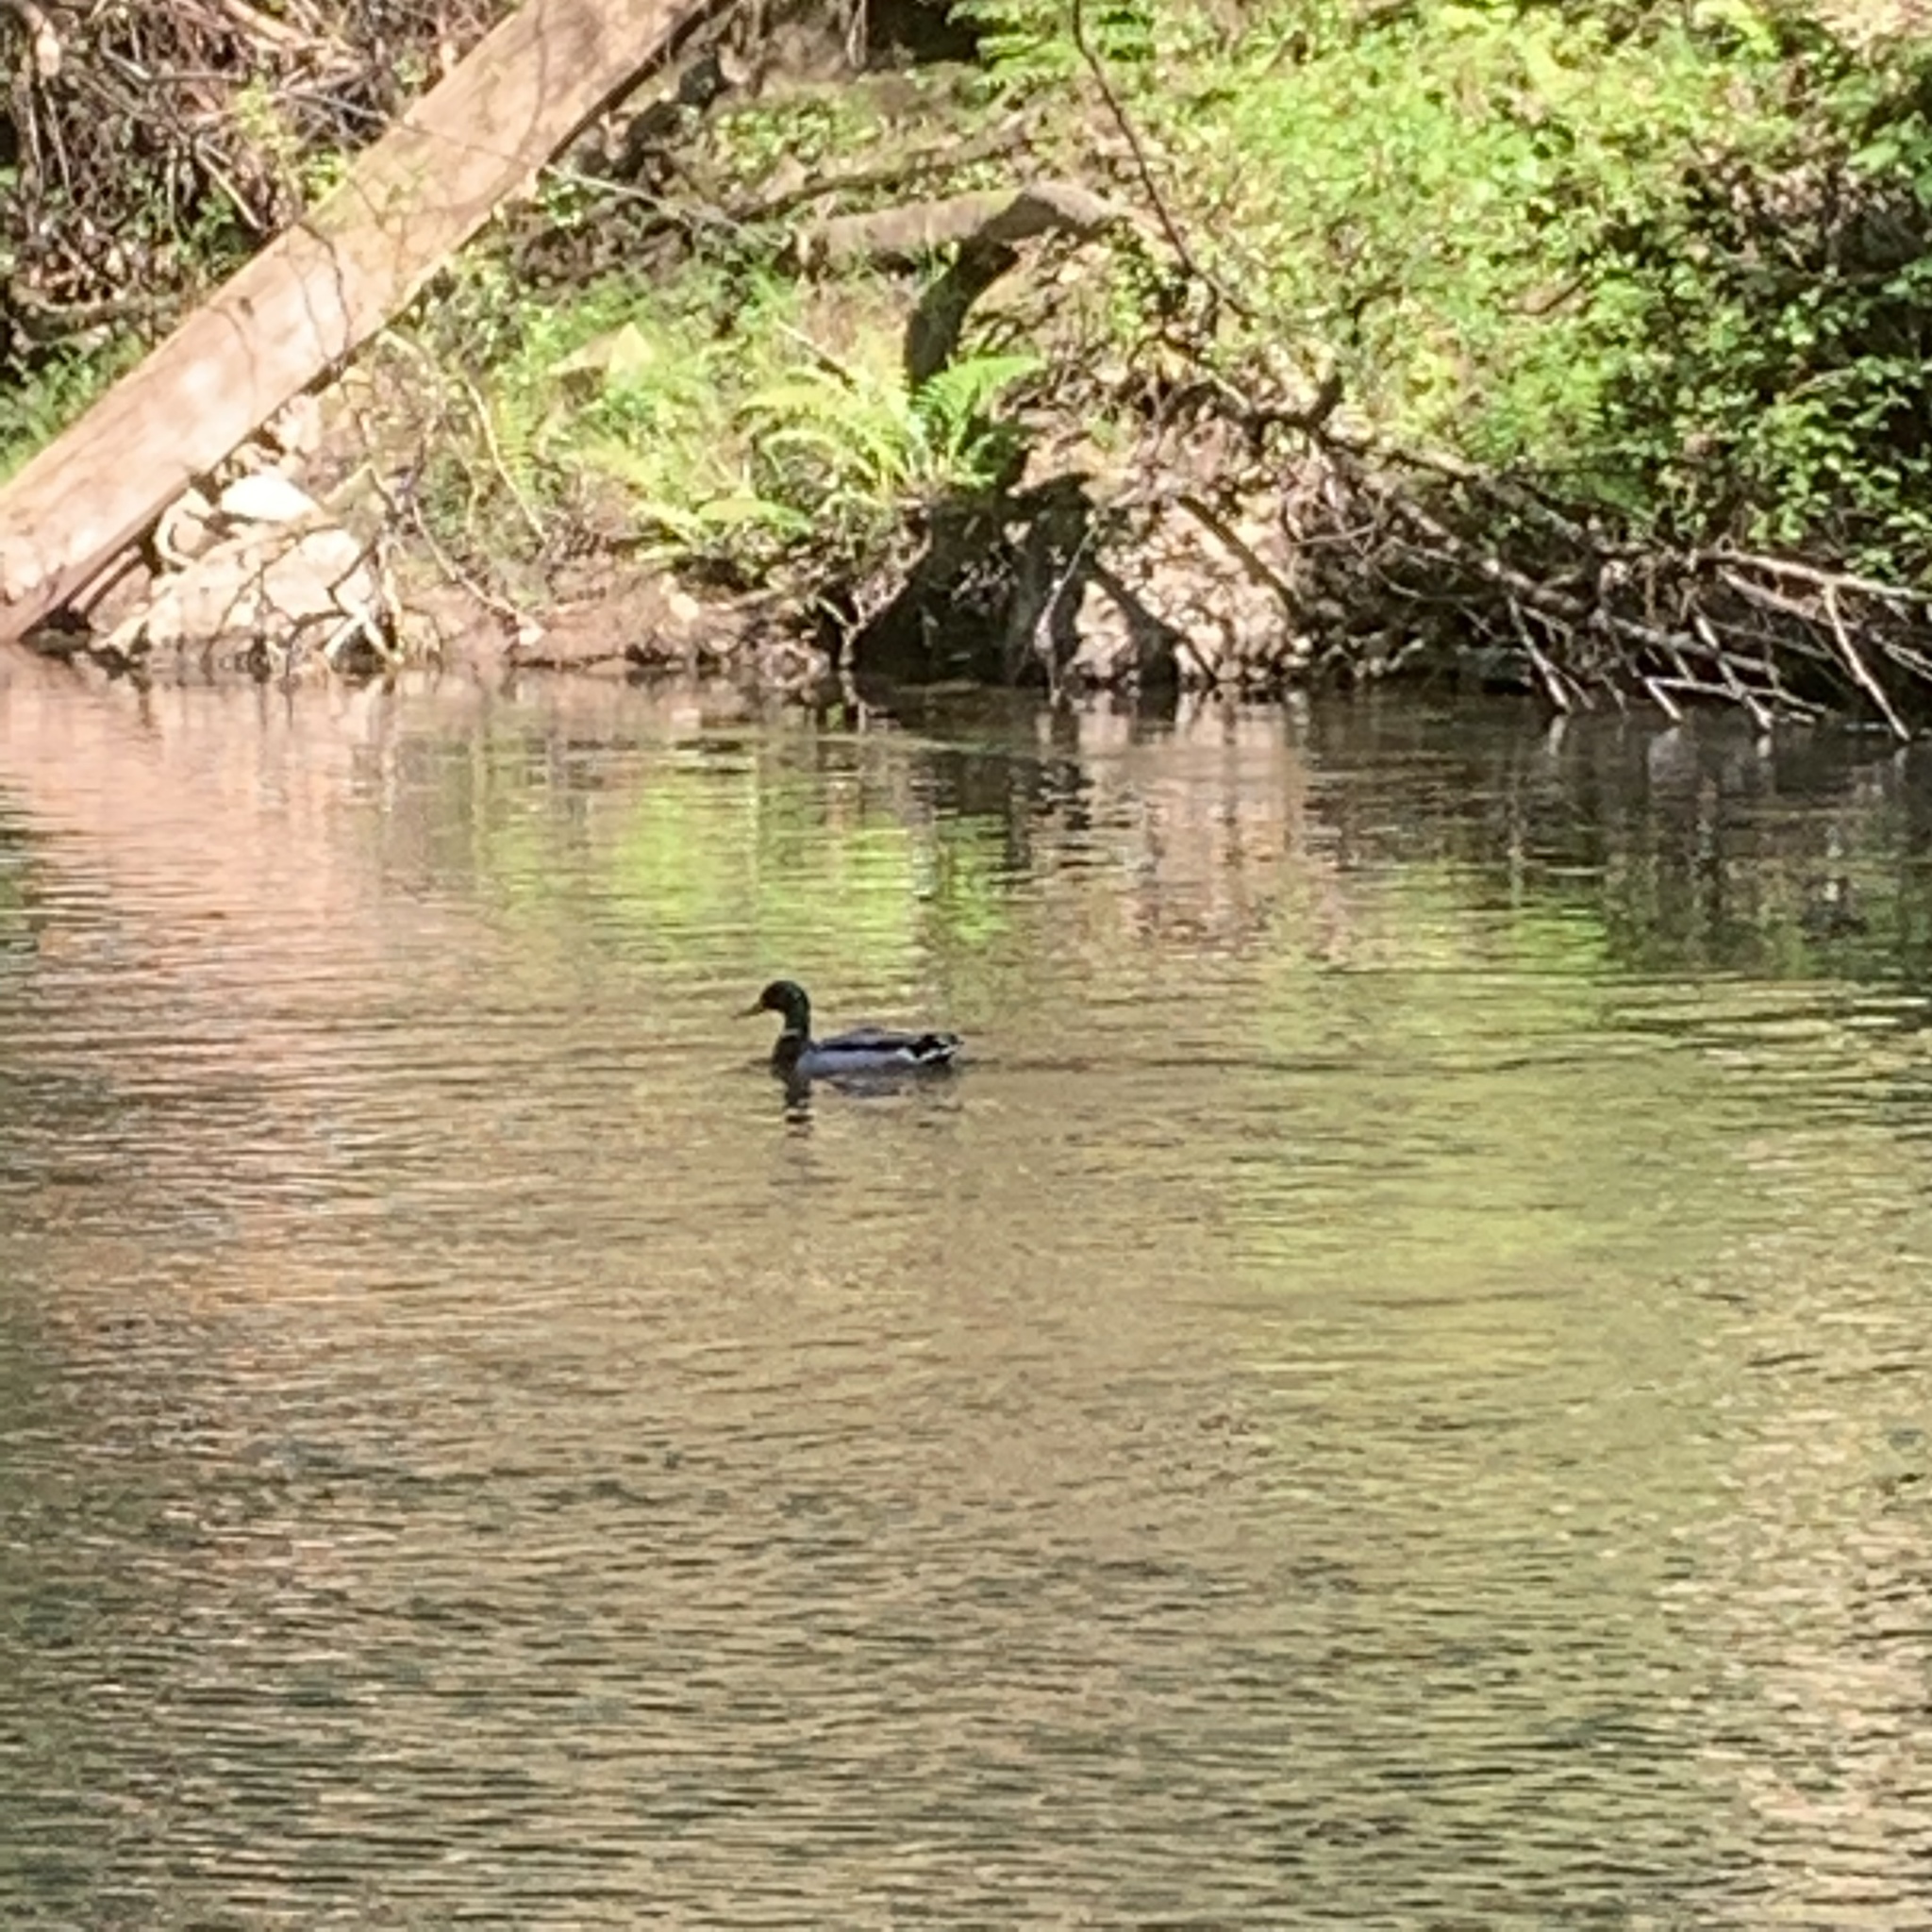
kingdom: Animalia
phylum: Chordata
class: Aves
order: Anseriformes
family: Anatidae
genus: Anas
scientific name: Anas platyrhynchos
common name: Mallard
